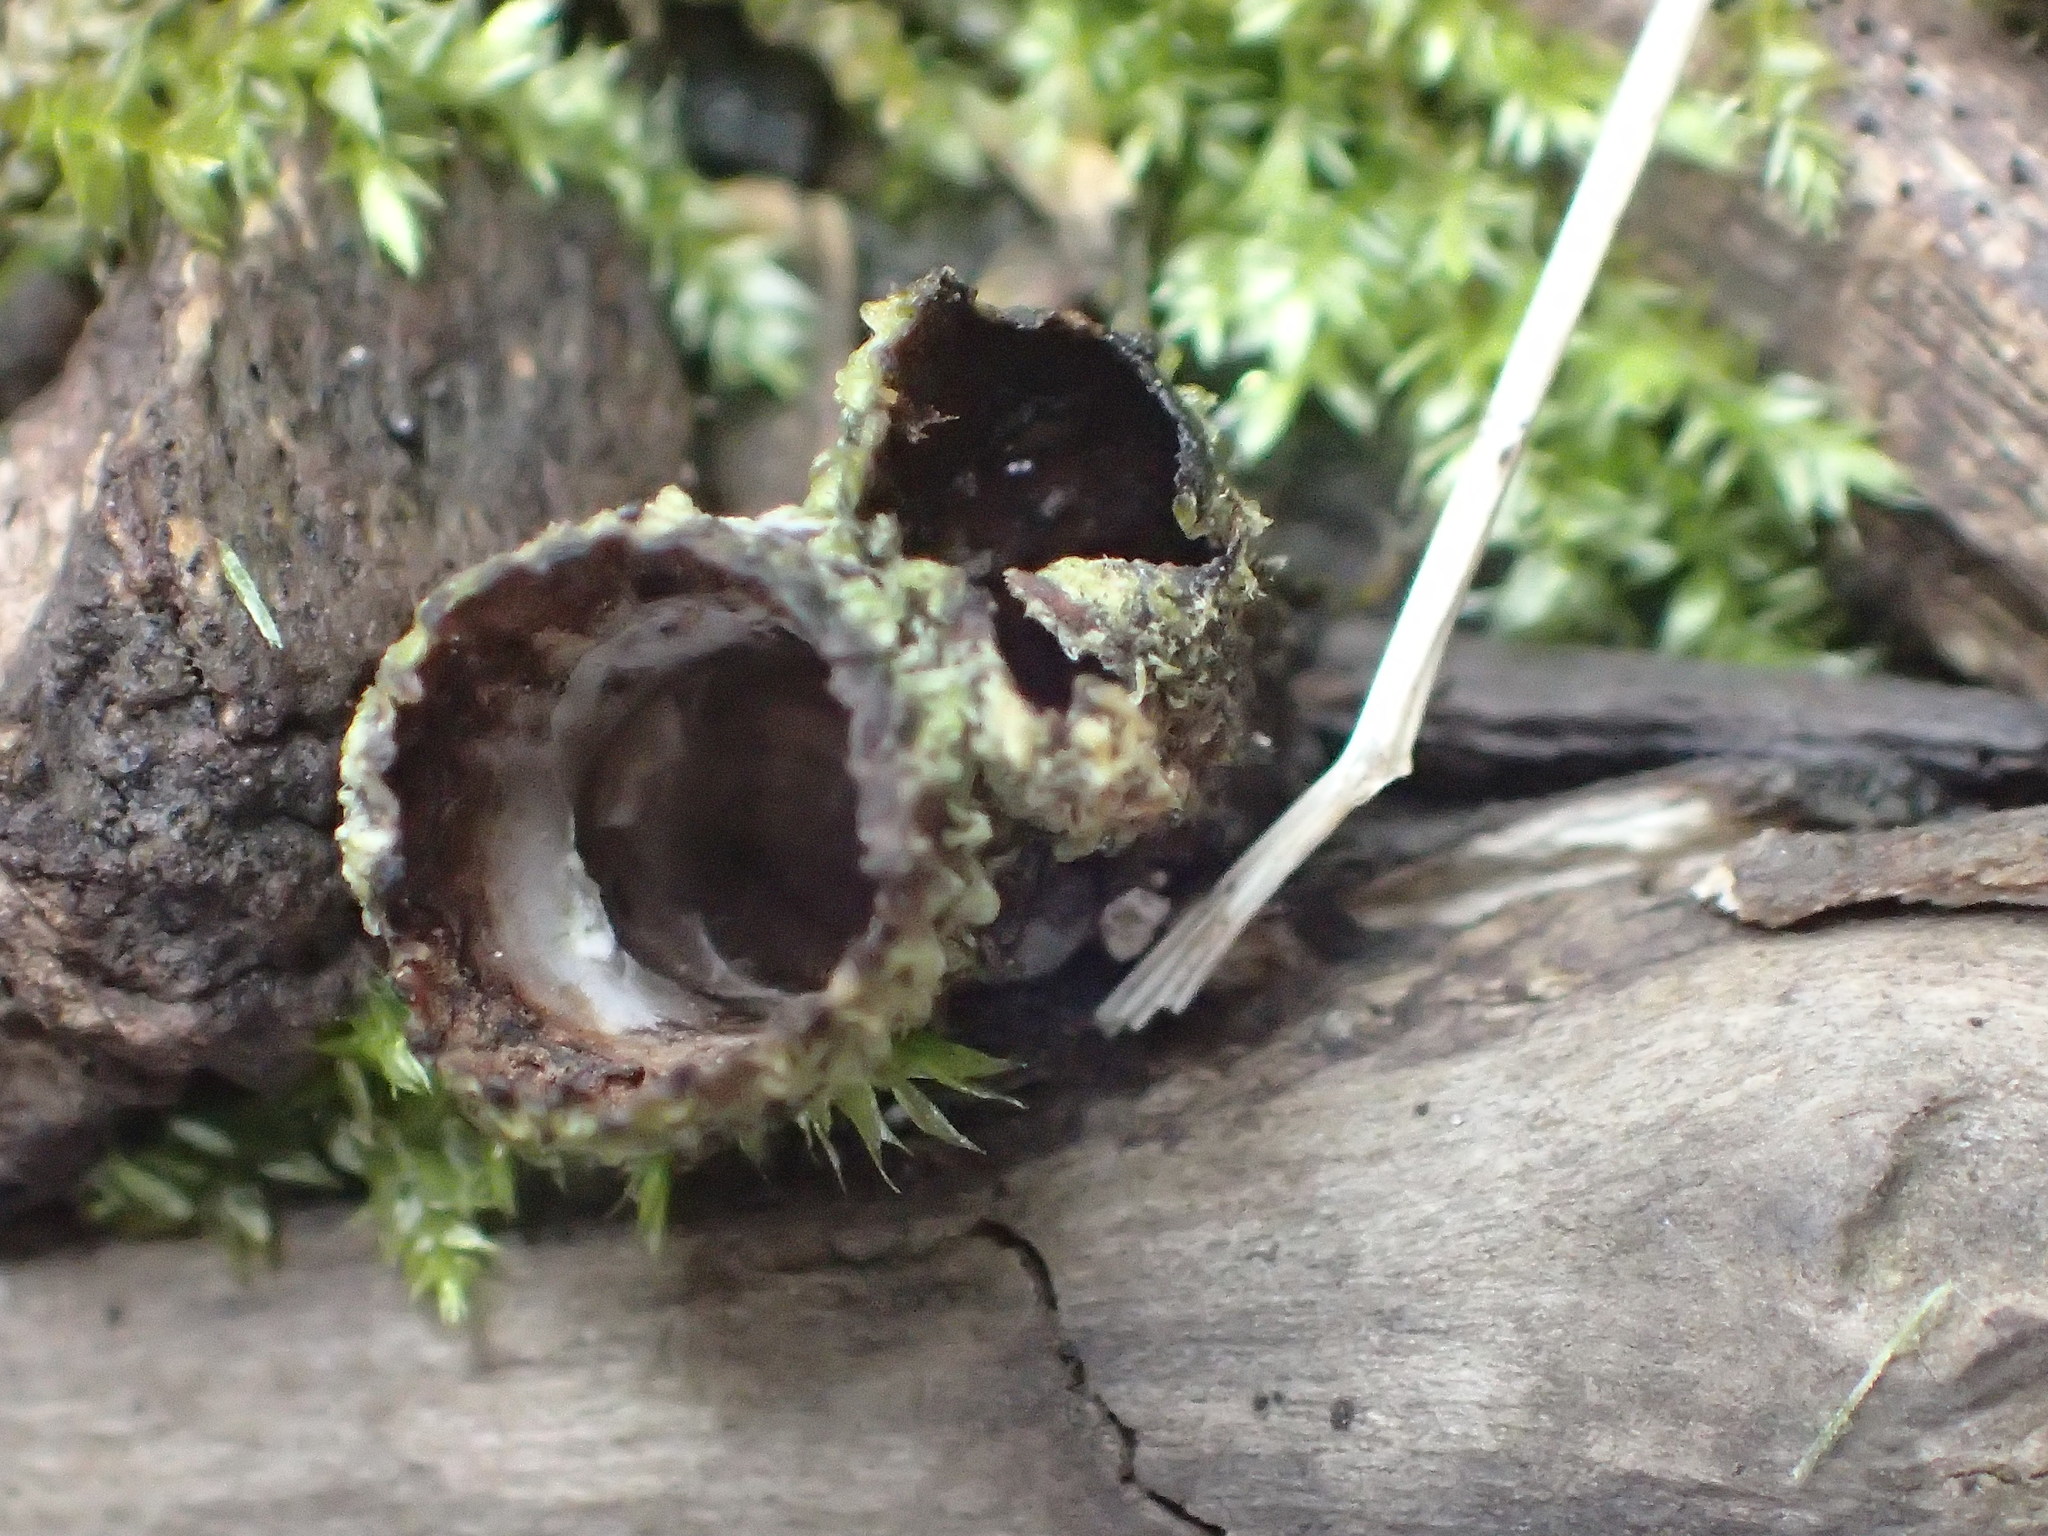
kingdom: Fungi
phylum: Basidiomycota
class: Agaricomycetes
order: Agaricales
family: Agaricaceae
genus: Cyathus
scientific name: Cyathus striatus
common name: Fluted bird's nest
